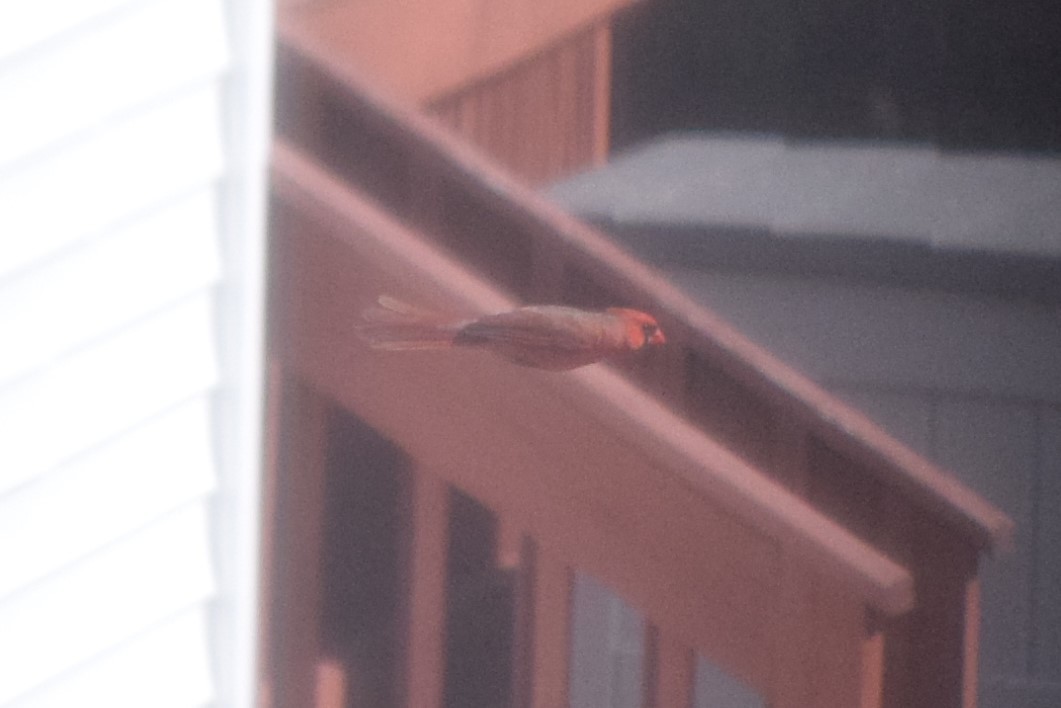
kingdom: Animalia
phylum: Chordata
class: Aves
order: Passeriformes
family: Cardinalidae
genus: Cardinalis
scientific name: Cardinalis cardinalis
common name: Northern cardinal
